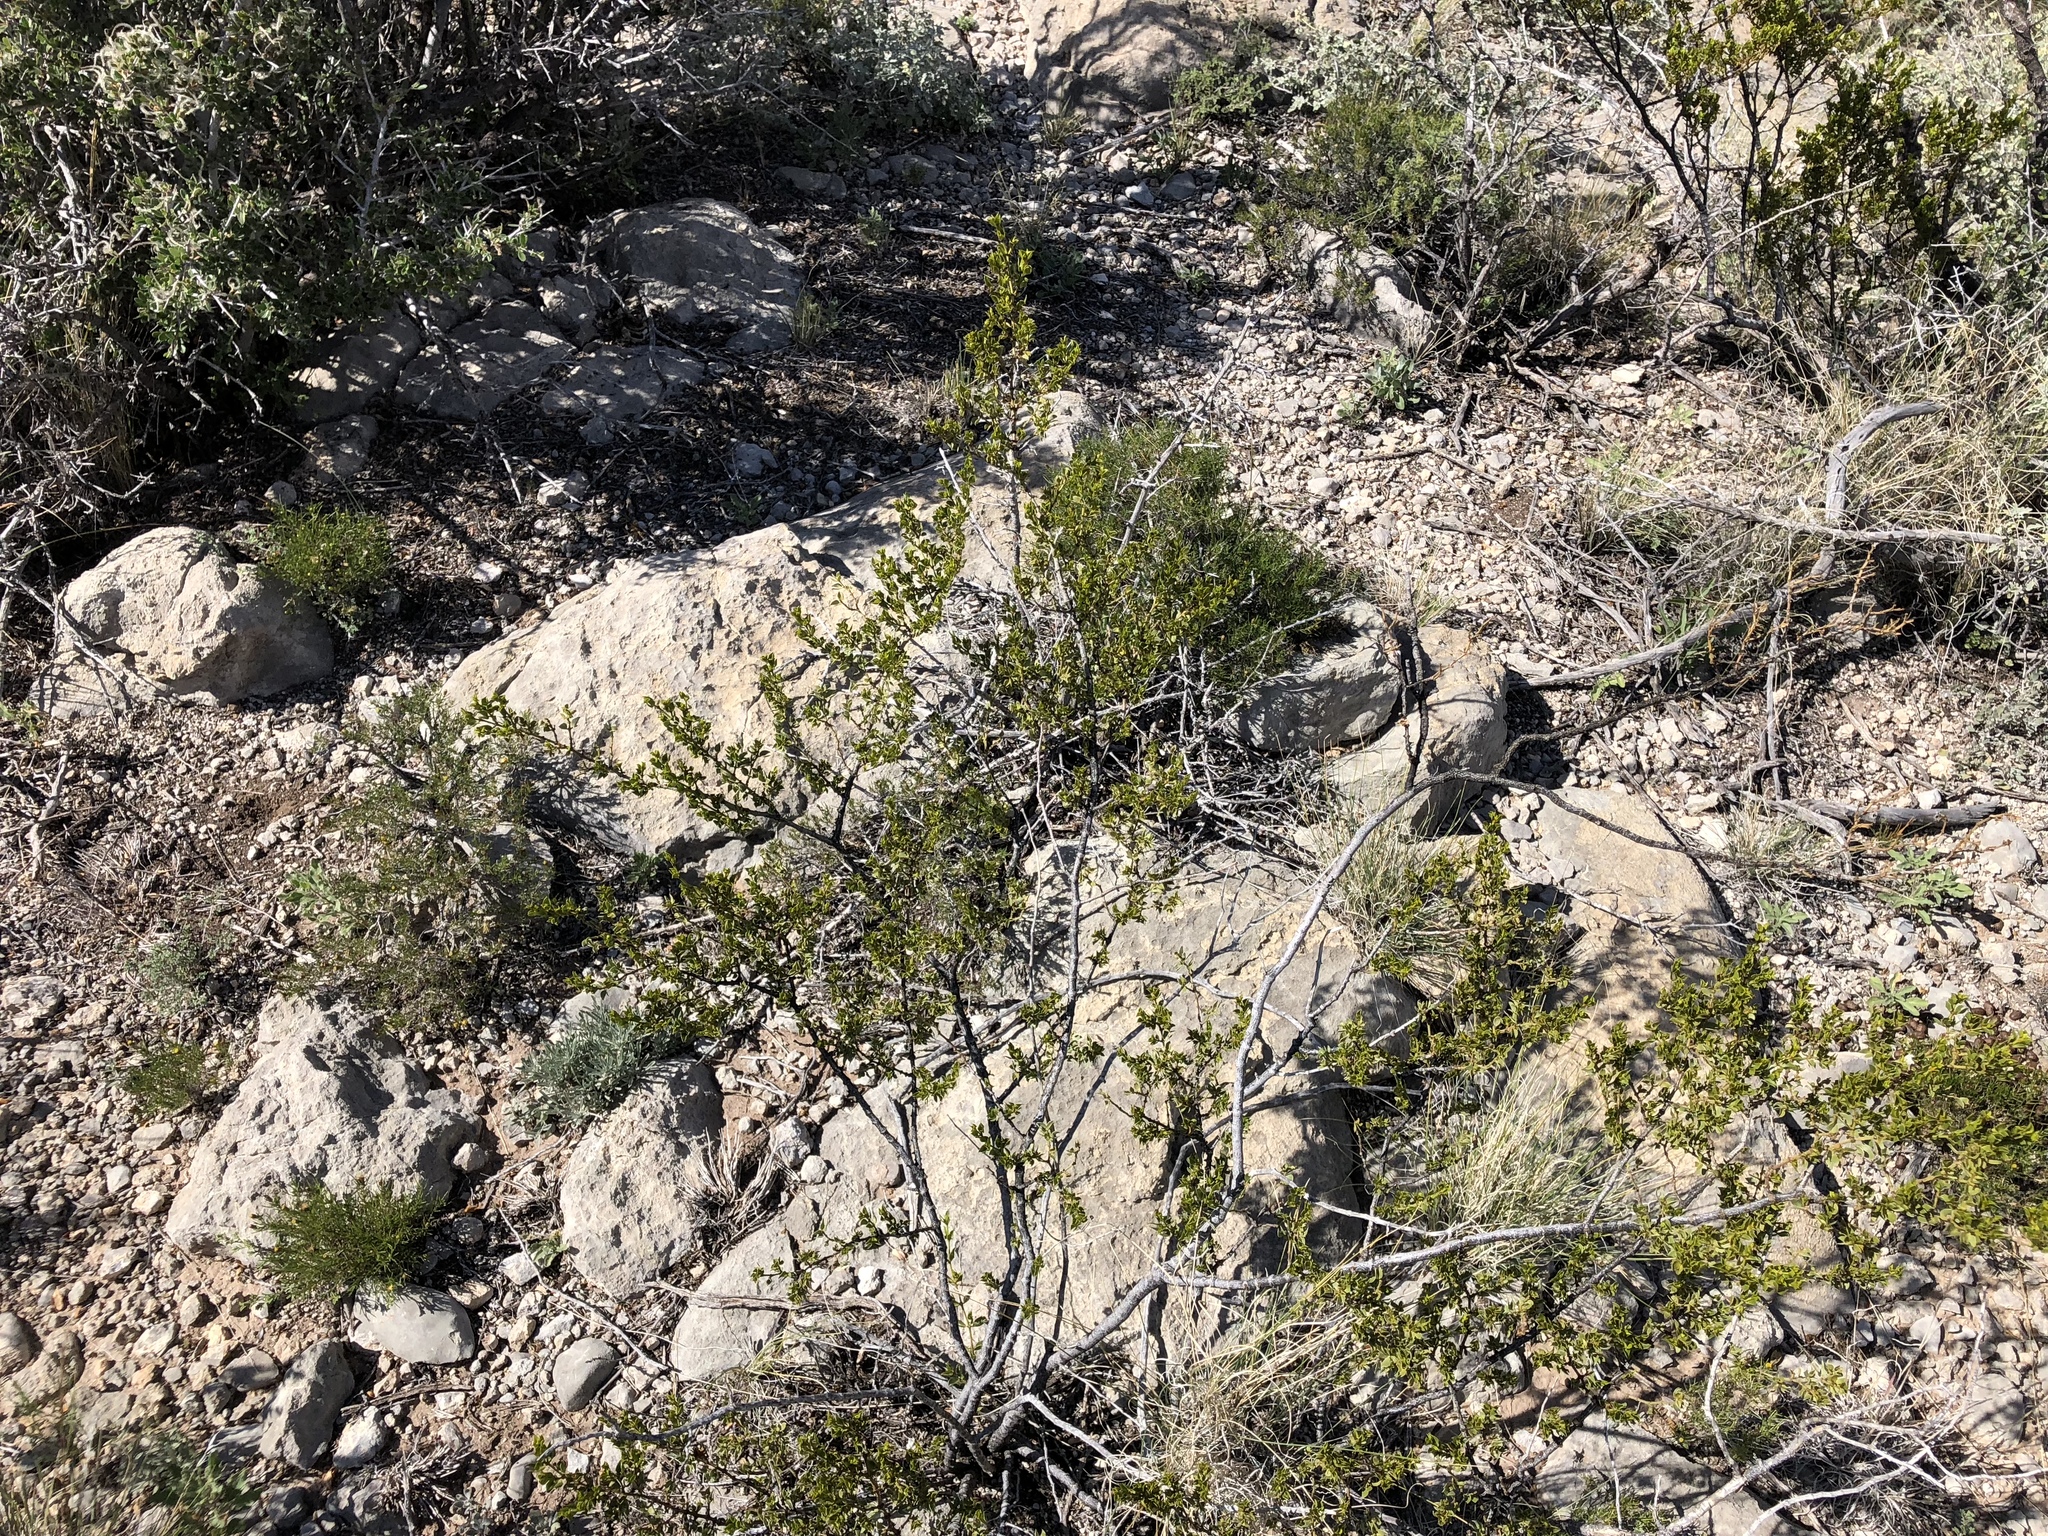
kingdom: Plantae
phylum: Tracheophyta
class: Magnoliopsida
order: Zygophyllales
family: Zygophyllaceae
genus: Larrea
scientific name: Larrea tridentata
